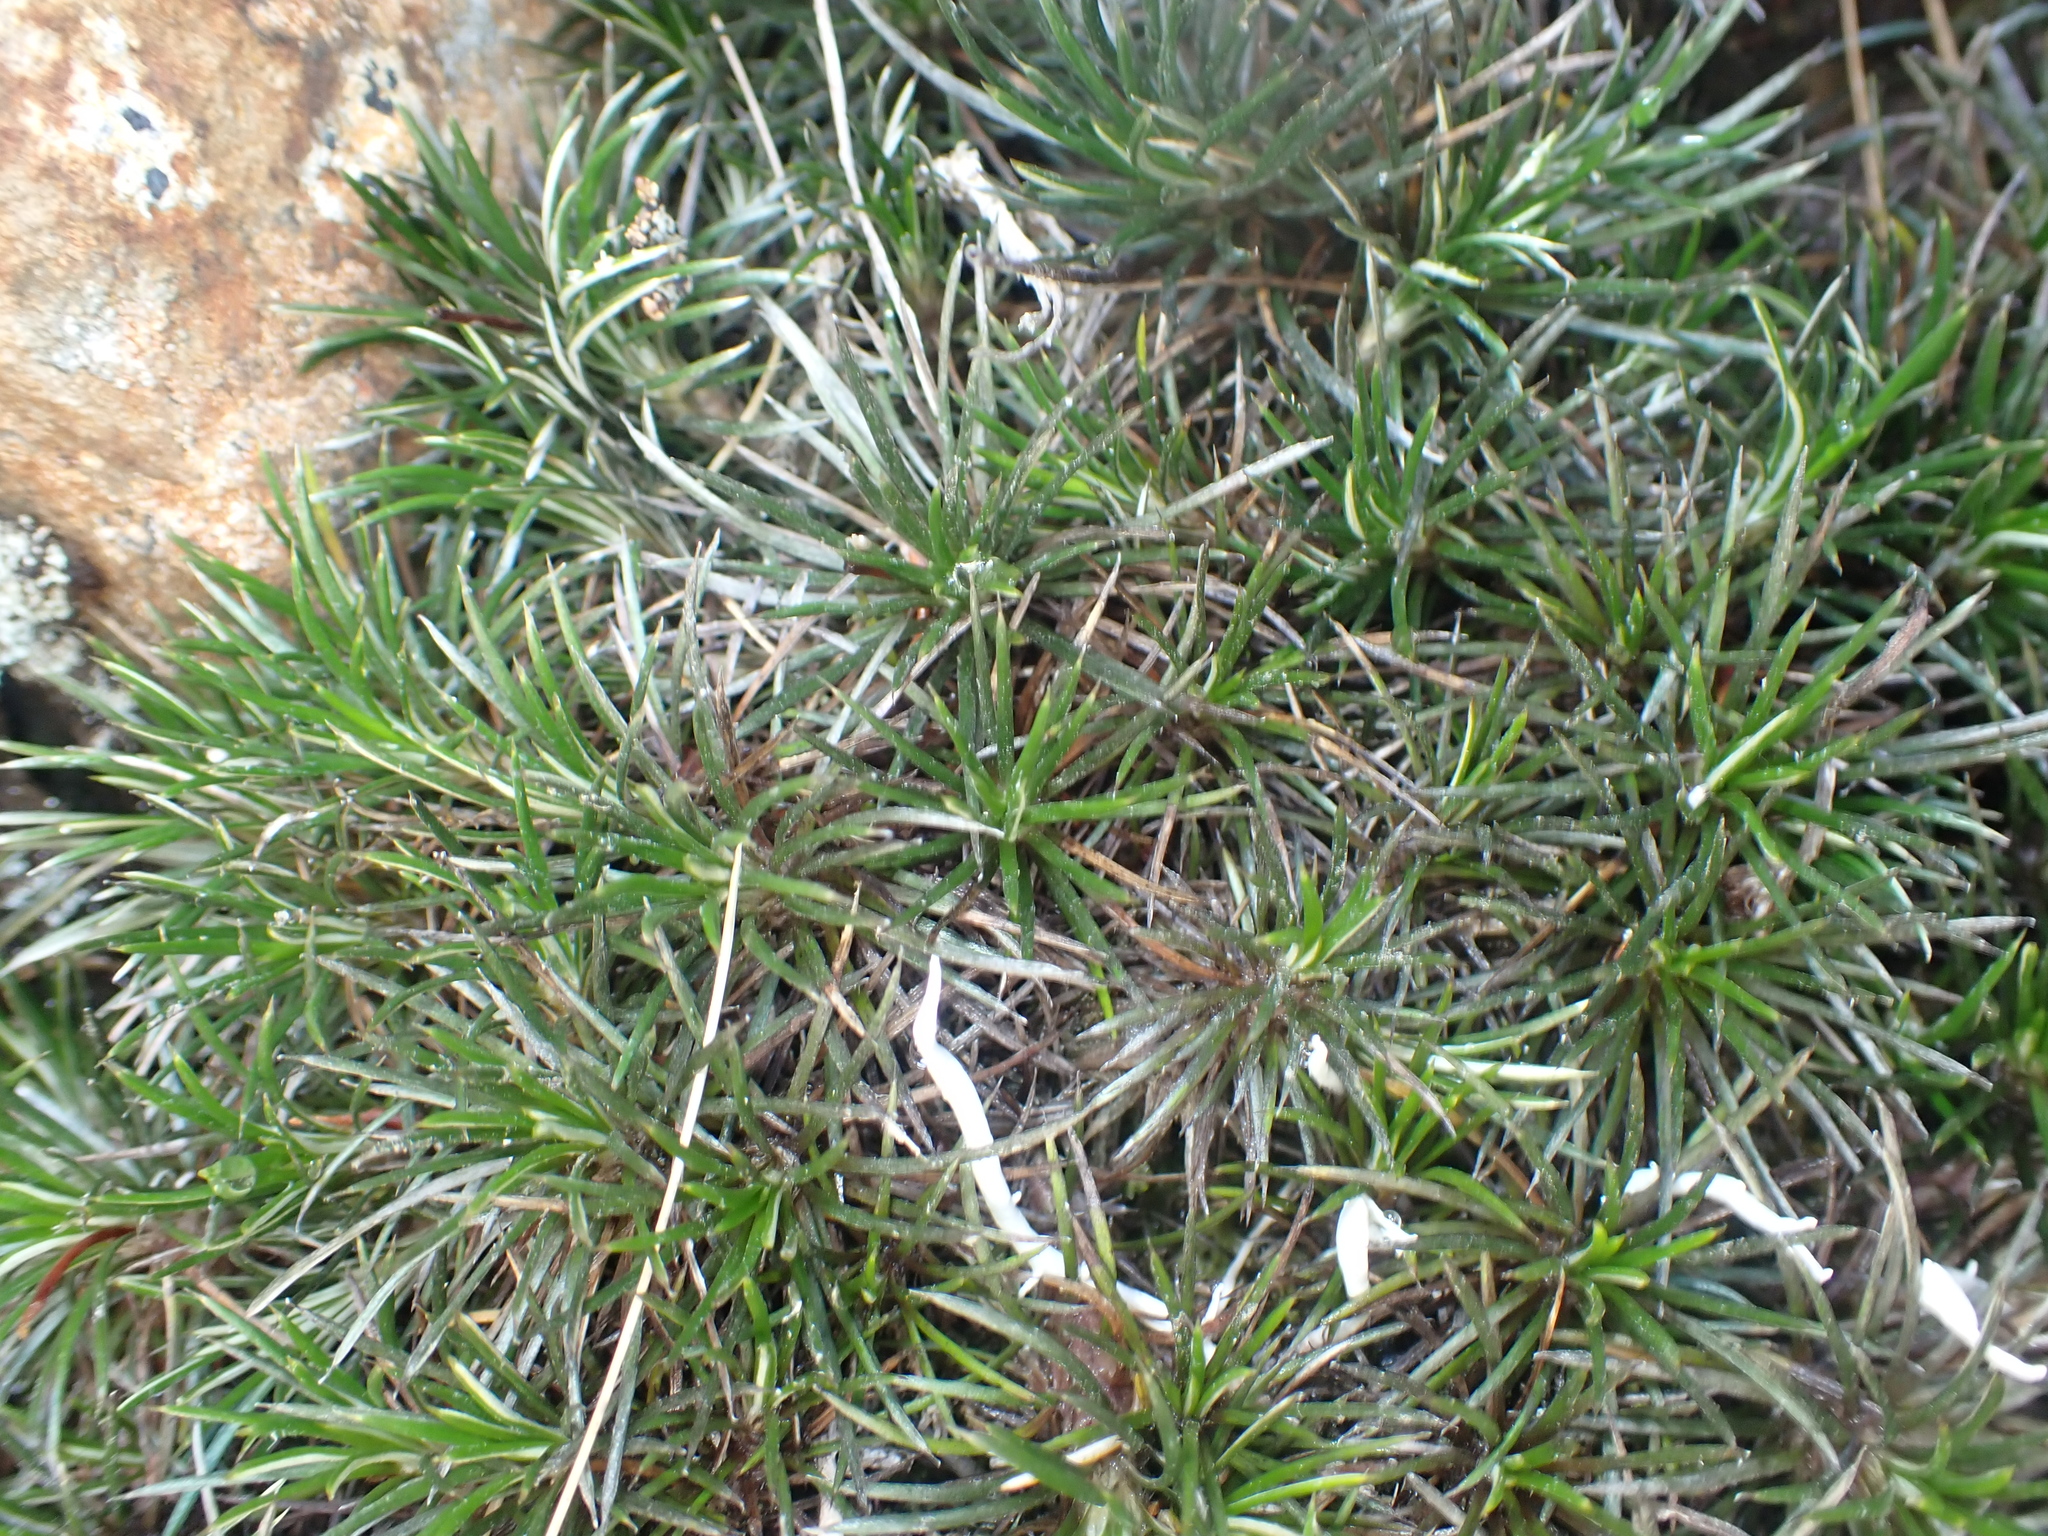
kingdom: Plantae
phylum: Tracheophyta
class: Magnoliopsida
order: Asterales
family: Asteraceae
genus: Celmisia
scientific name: Celmisia laricifolia
